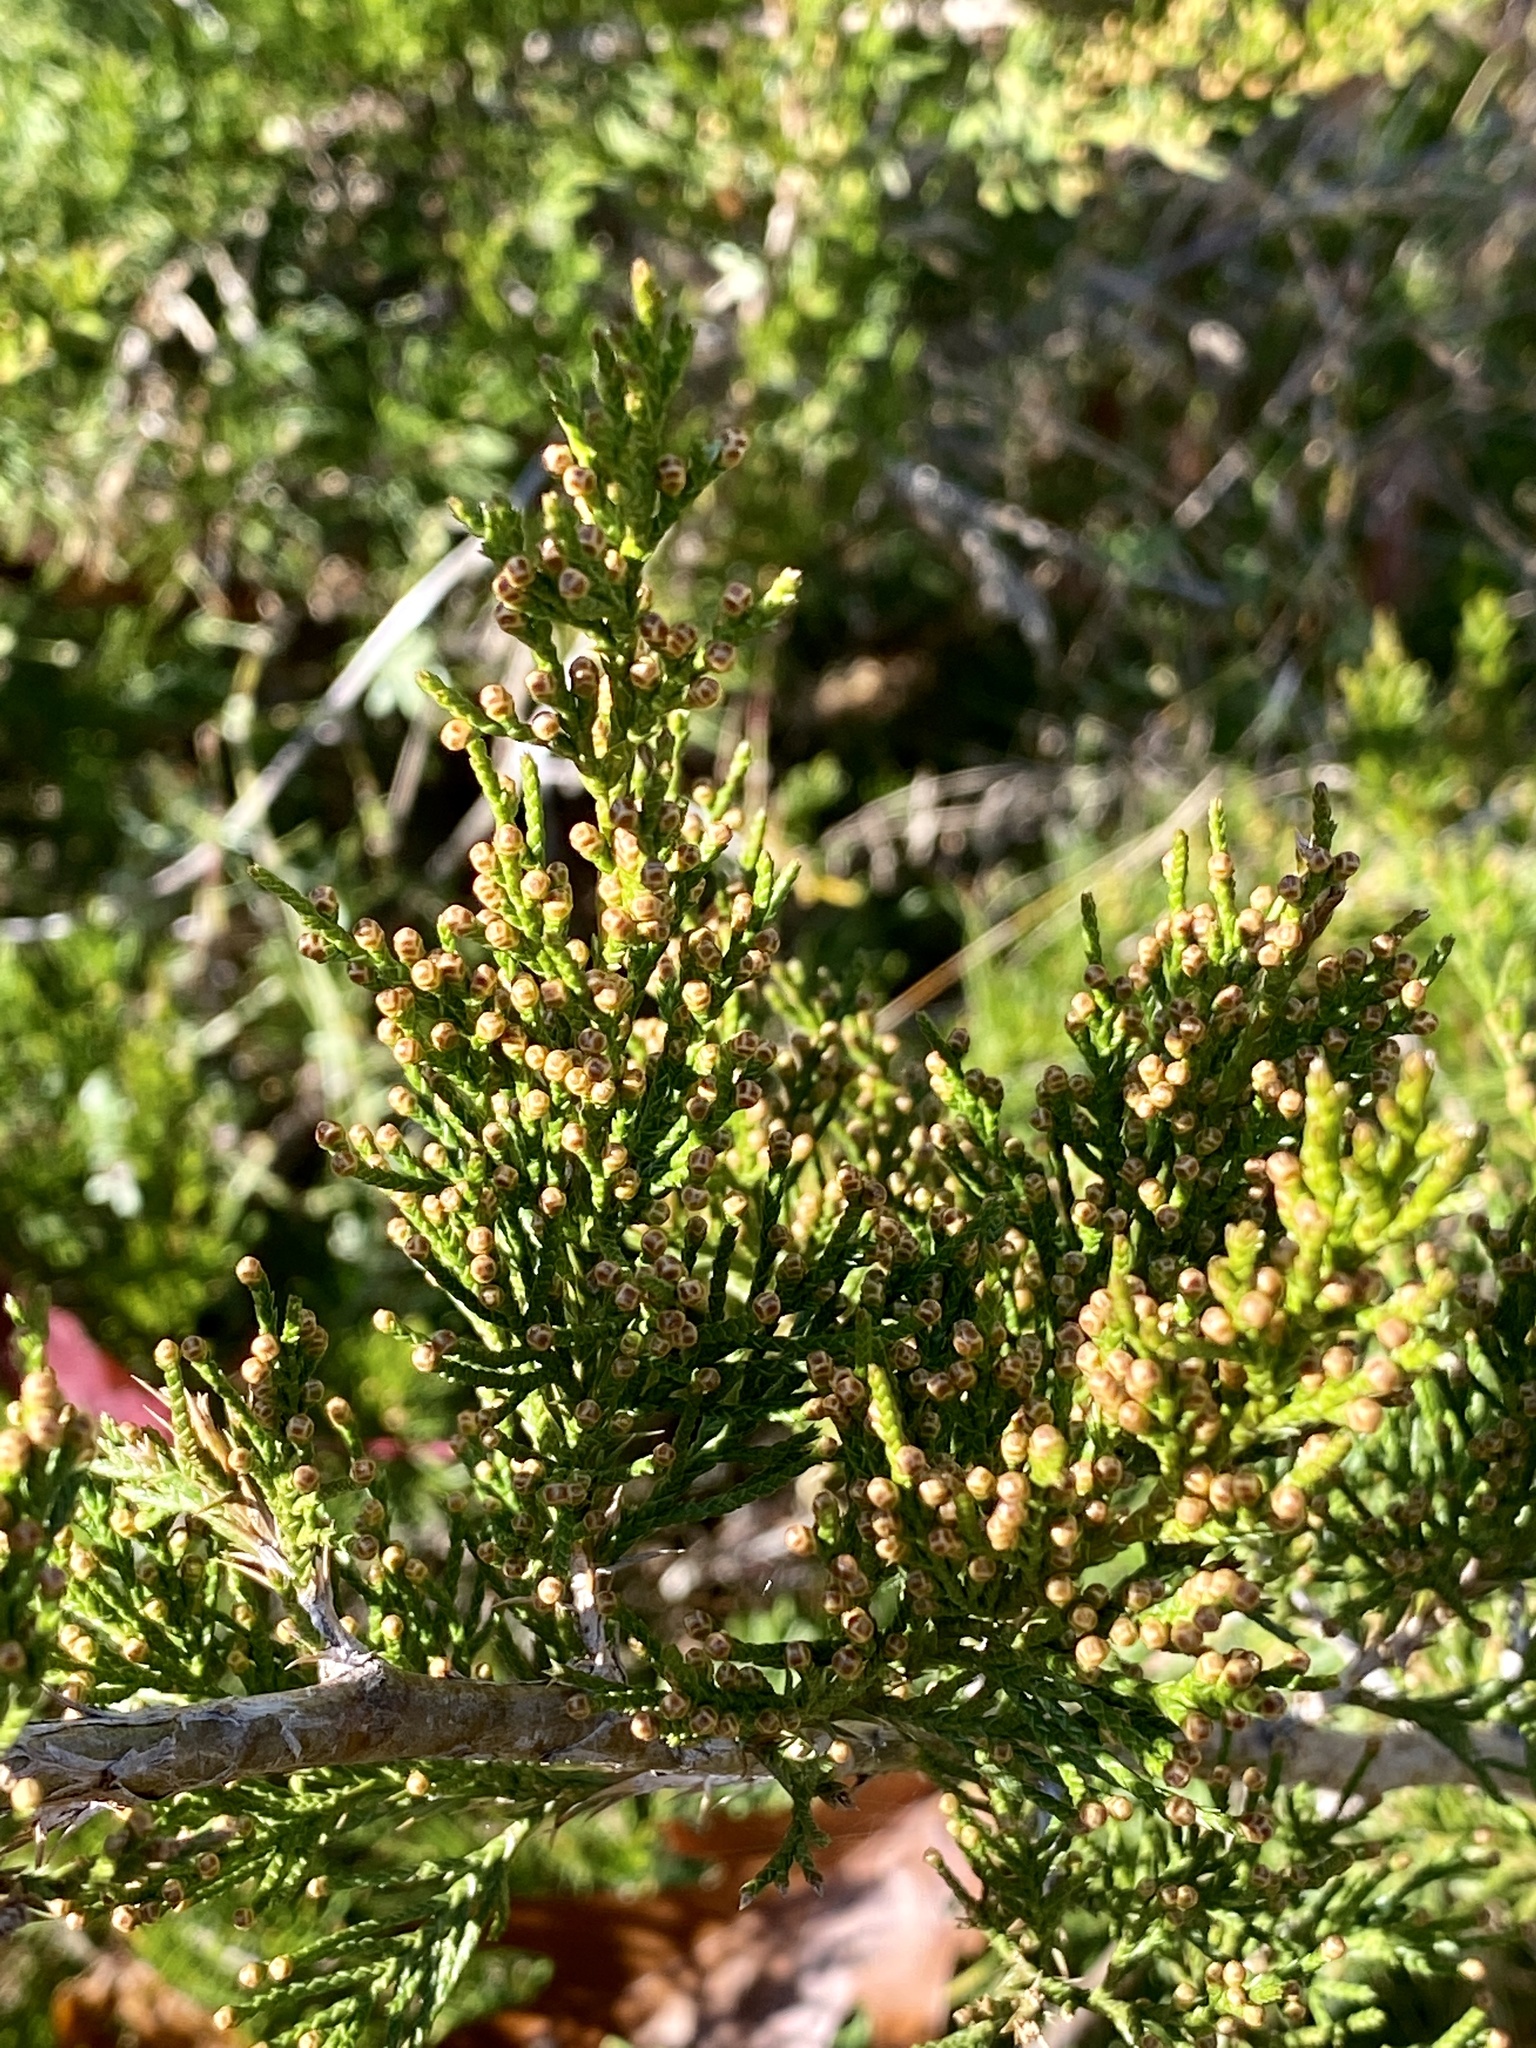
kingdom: Plantae
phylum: Tracheophyta
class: Pinopsida
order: Pinales
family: Cupressaceae
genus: Juniperus
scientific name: Juniperus virginiana
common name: Red juniper
